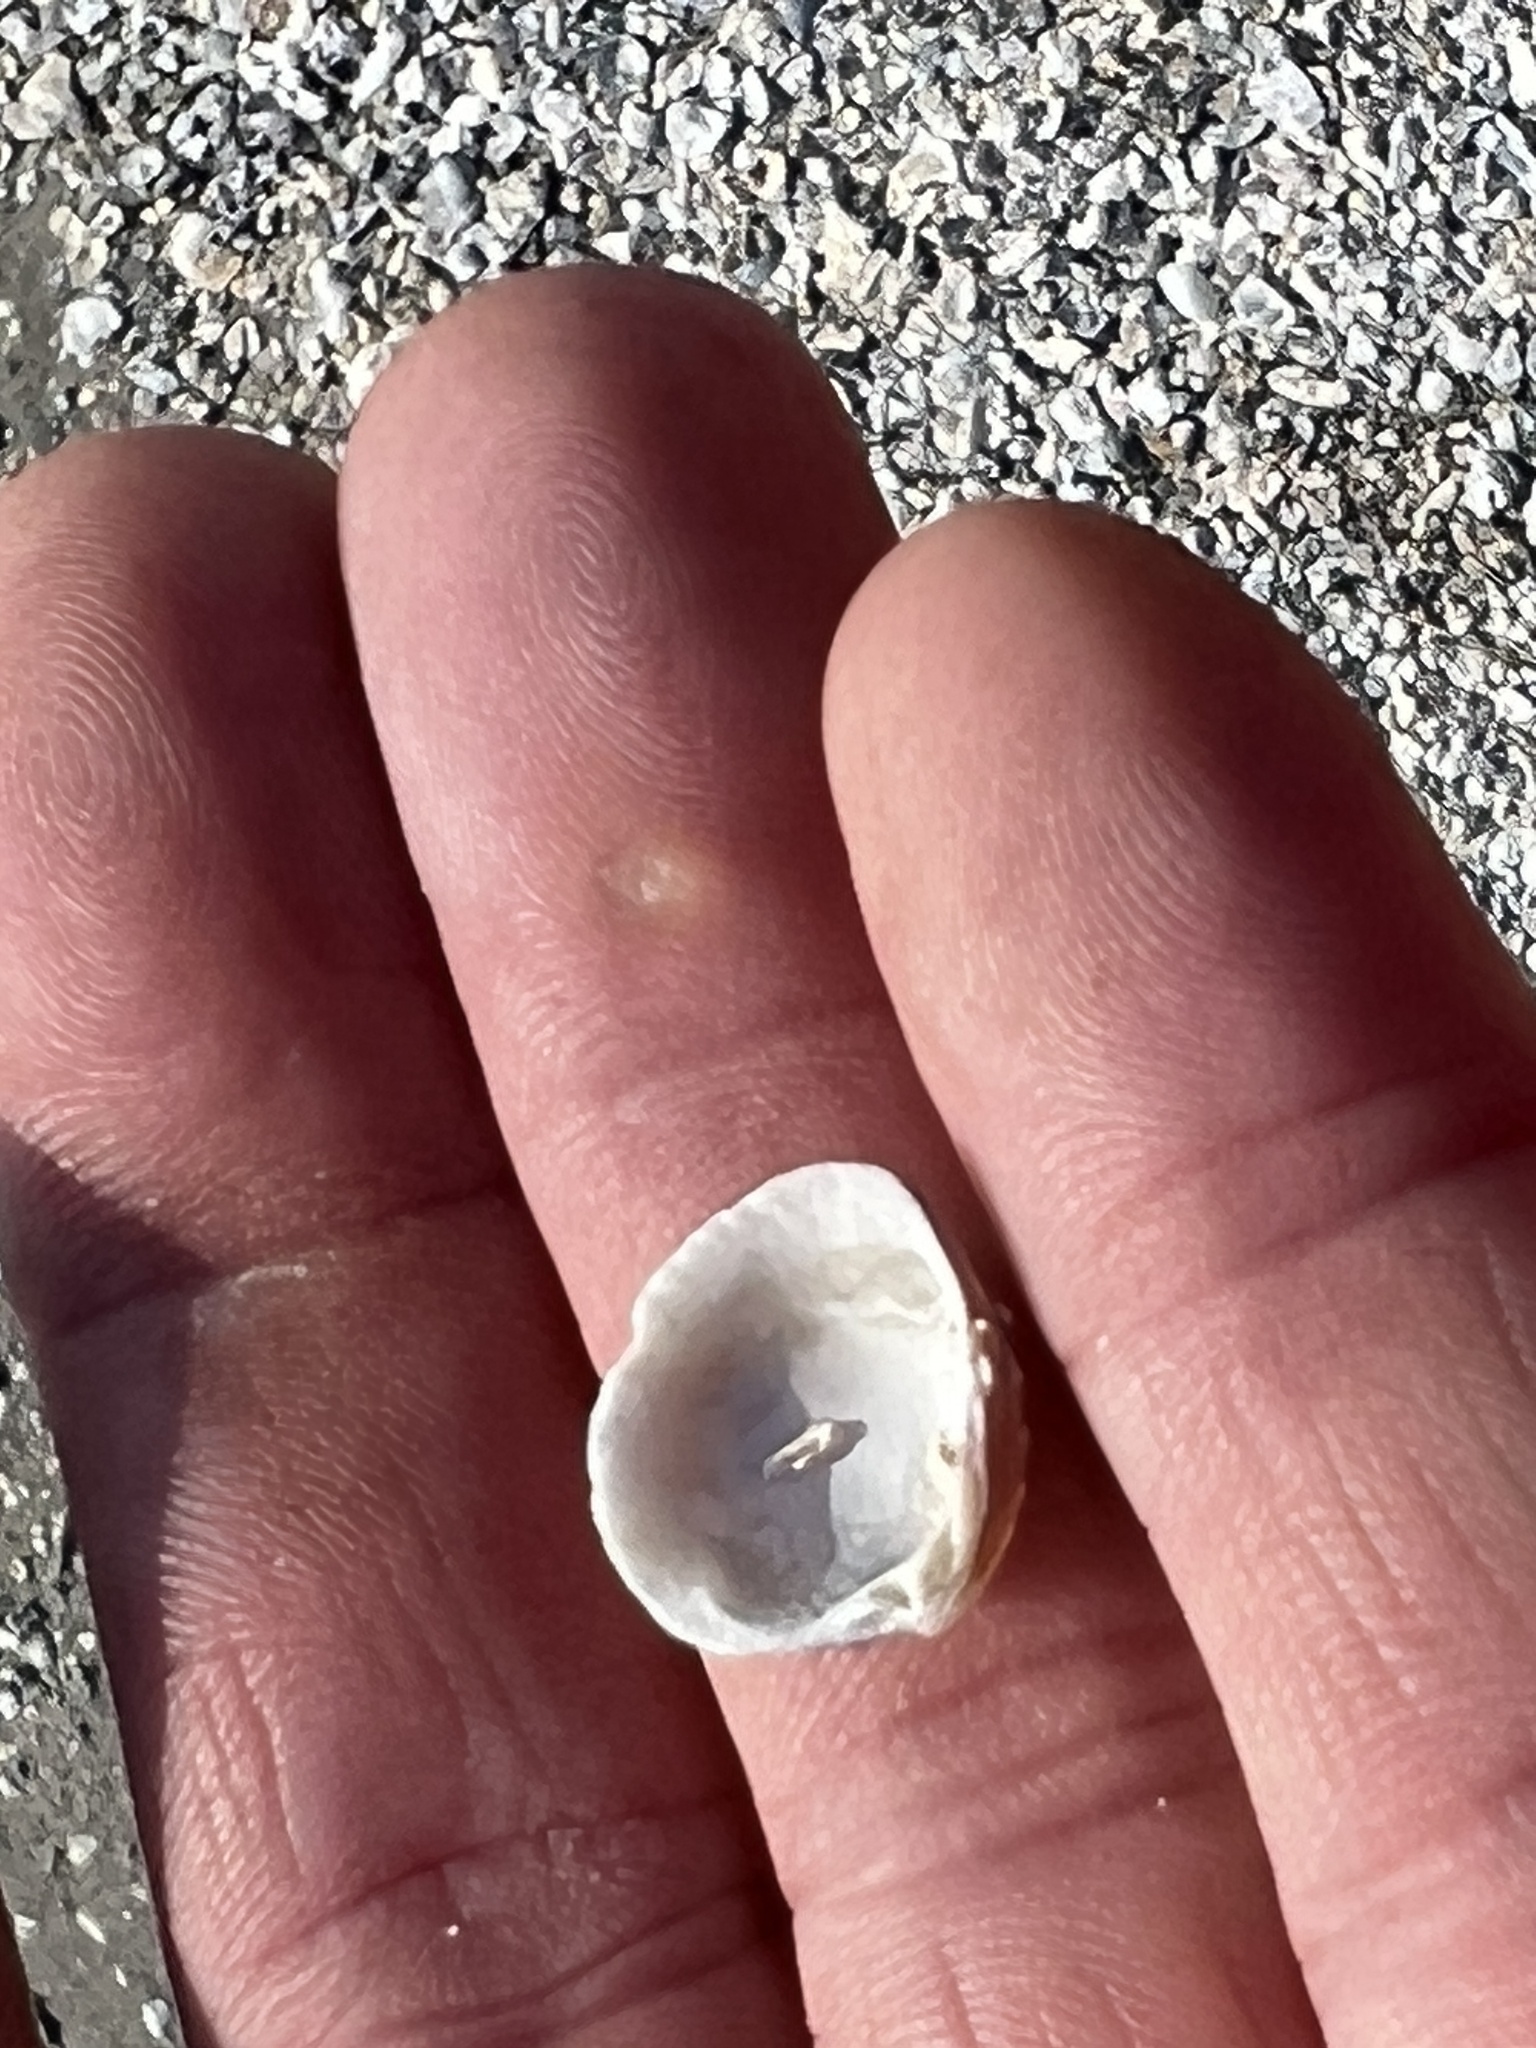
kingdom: Animalia
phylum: Mollusca
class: Bivalvia
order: Venerida
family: Veneridae
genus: Chione
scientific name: Chione elevata
